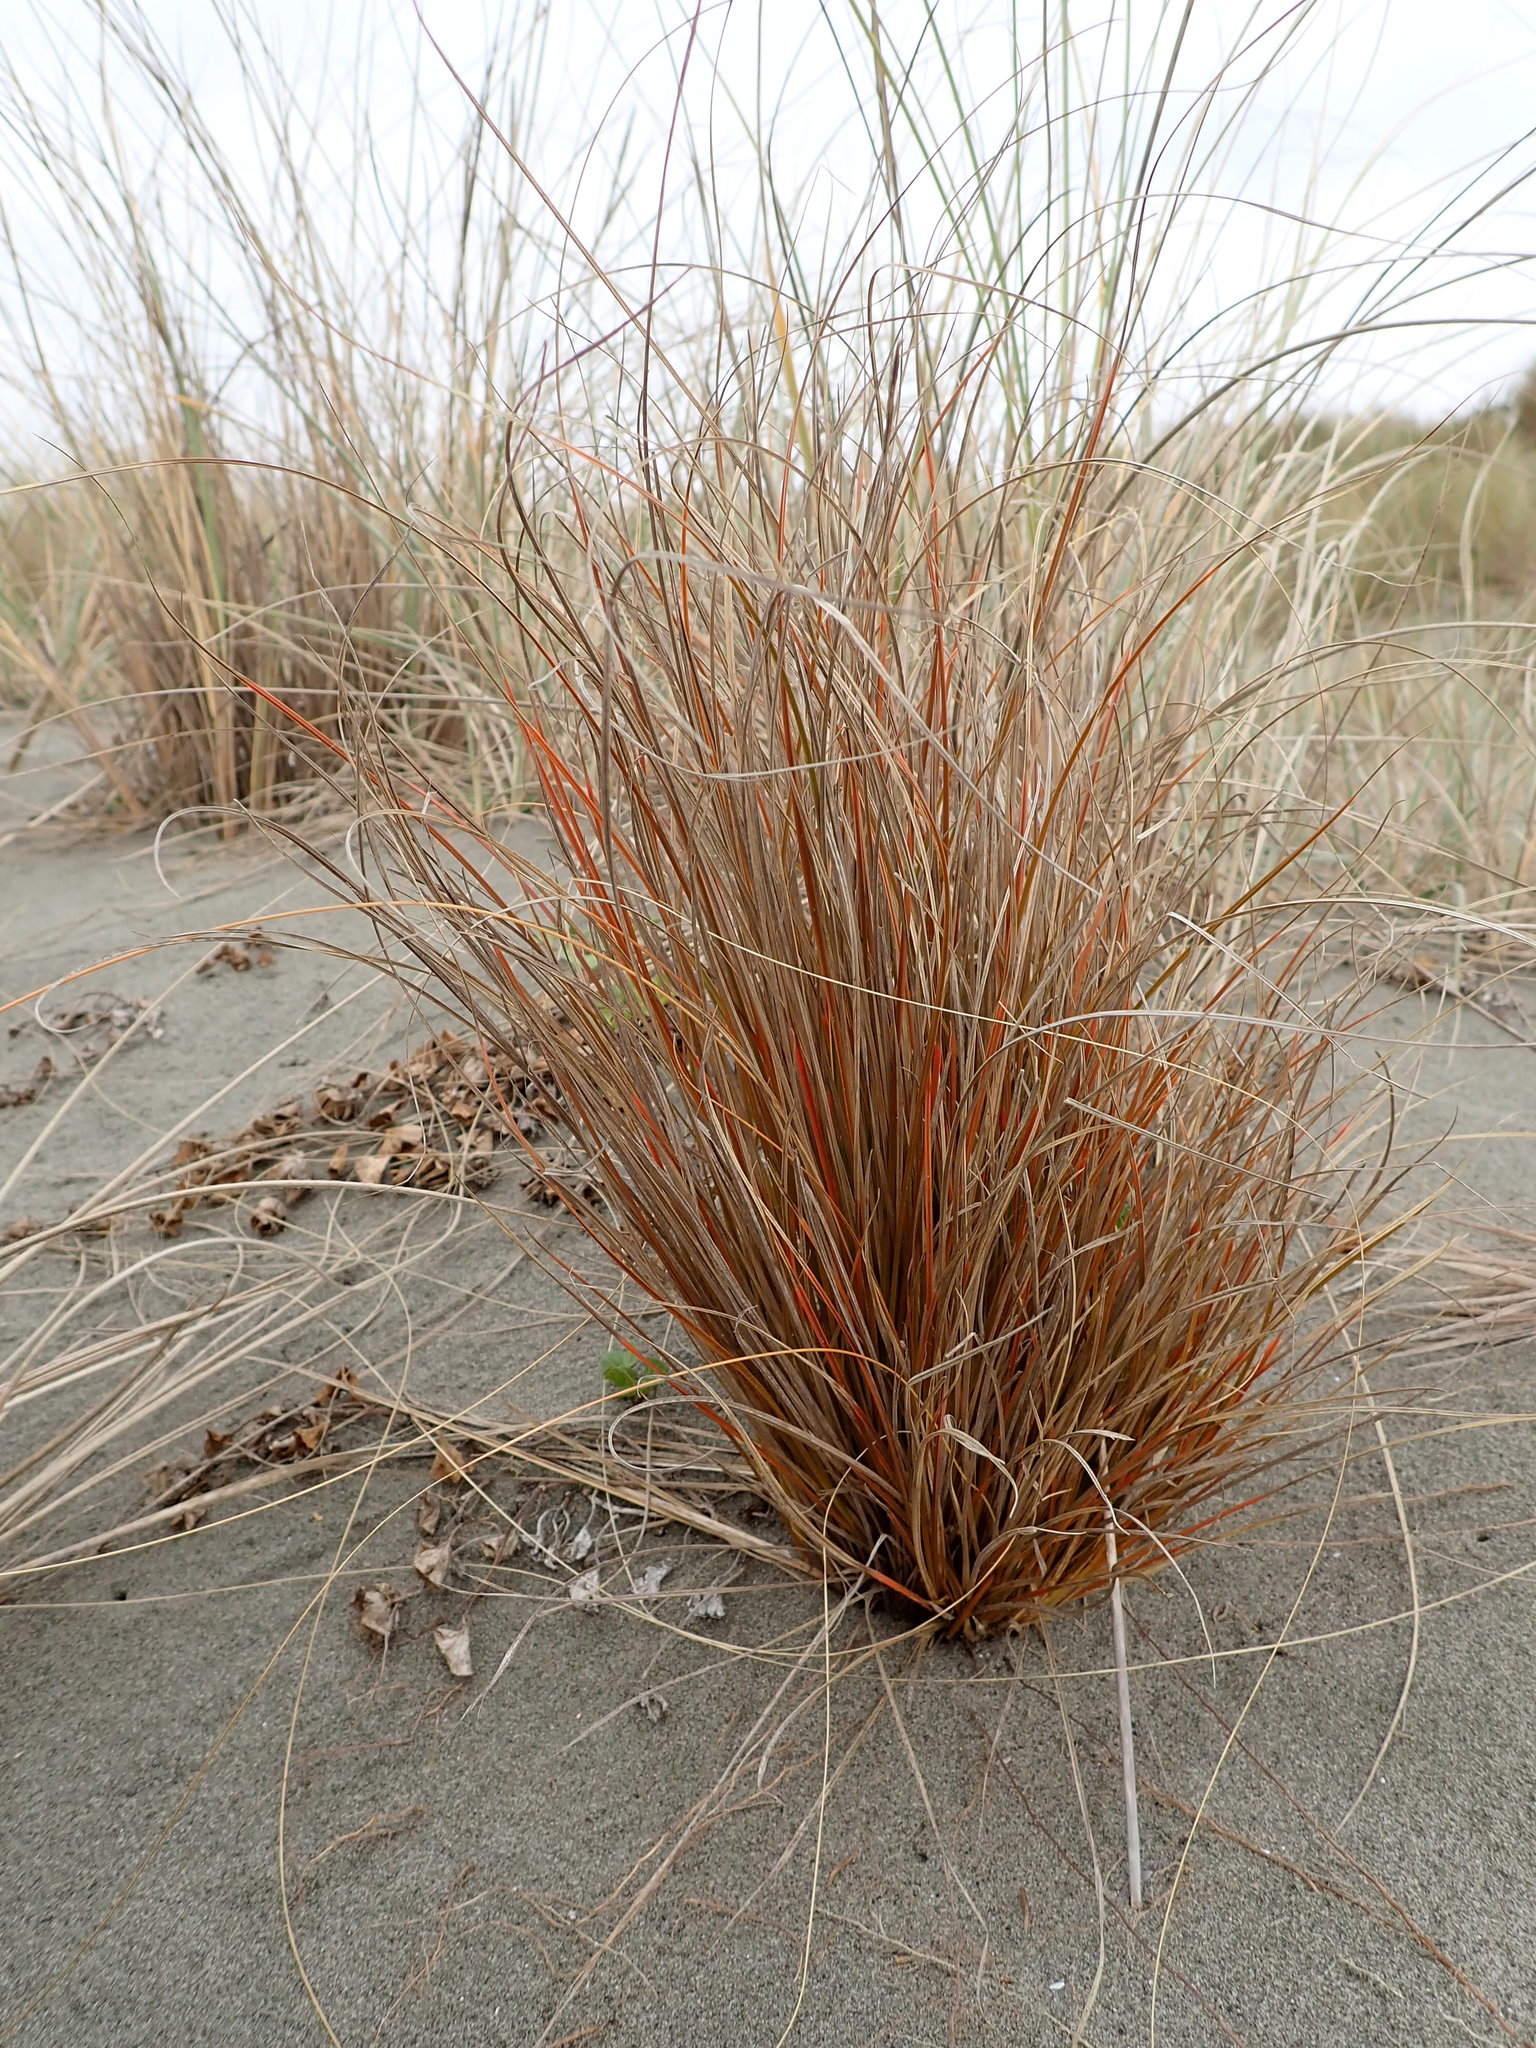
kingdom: Plantae
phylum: Tracheophyta
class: Liliopsida
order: Poales
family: Cyperaceae
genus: Carex
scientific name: Carex testacea
